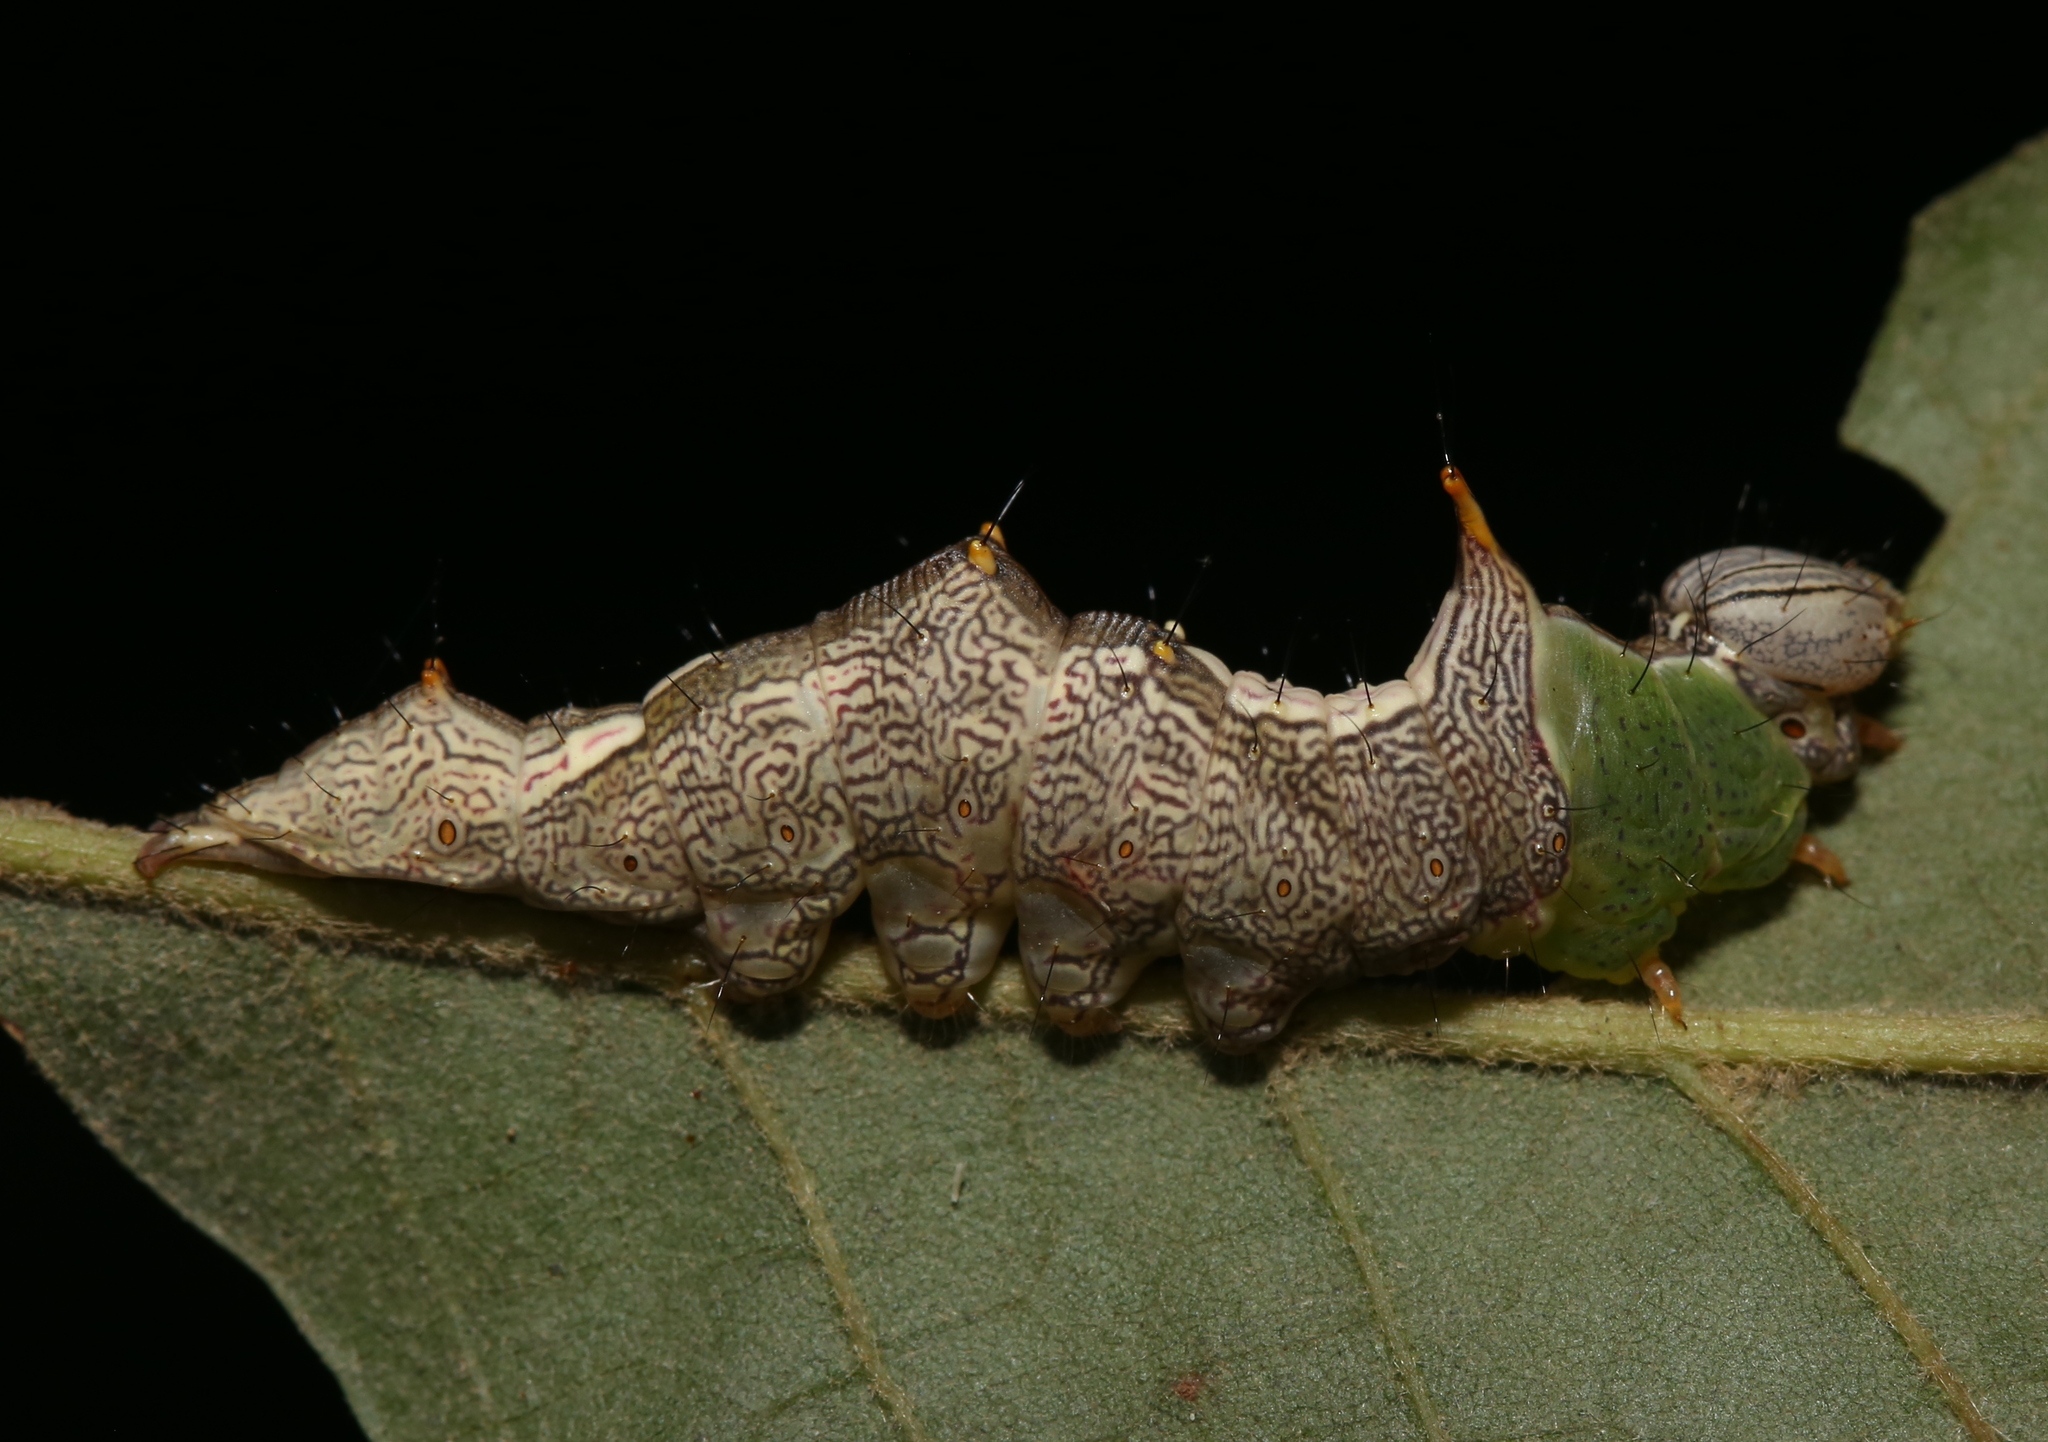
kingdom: Animalia
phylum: Arthropoda
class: Insecta
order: Lepidoptera
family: Notodontidae
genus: Schizura
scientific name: Schizura ipomaeae
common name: Morning-glory prominent
